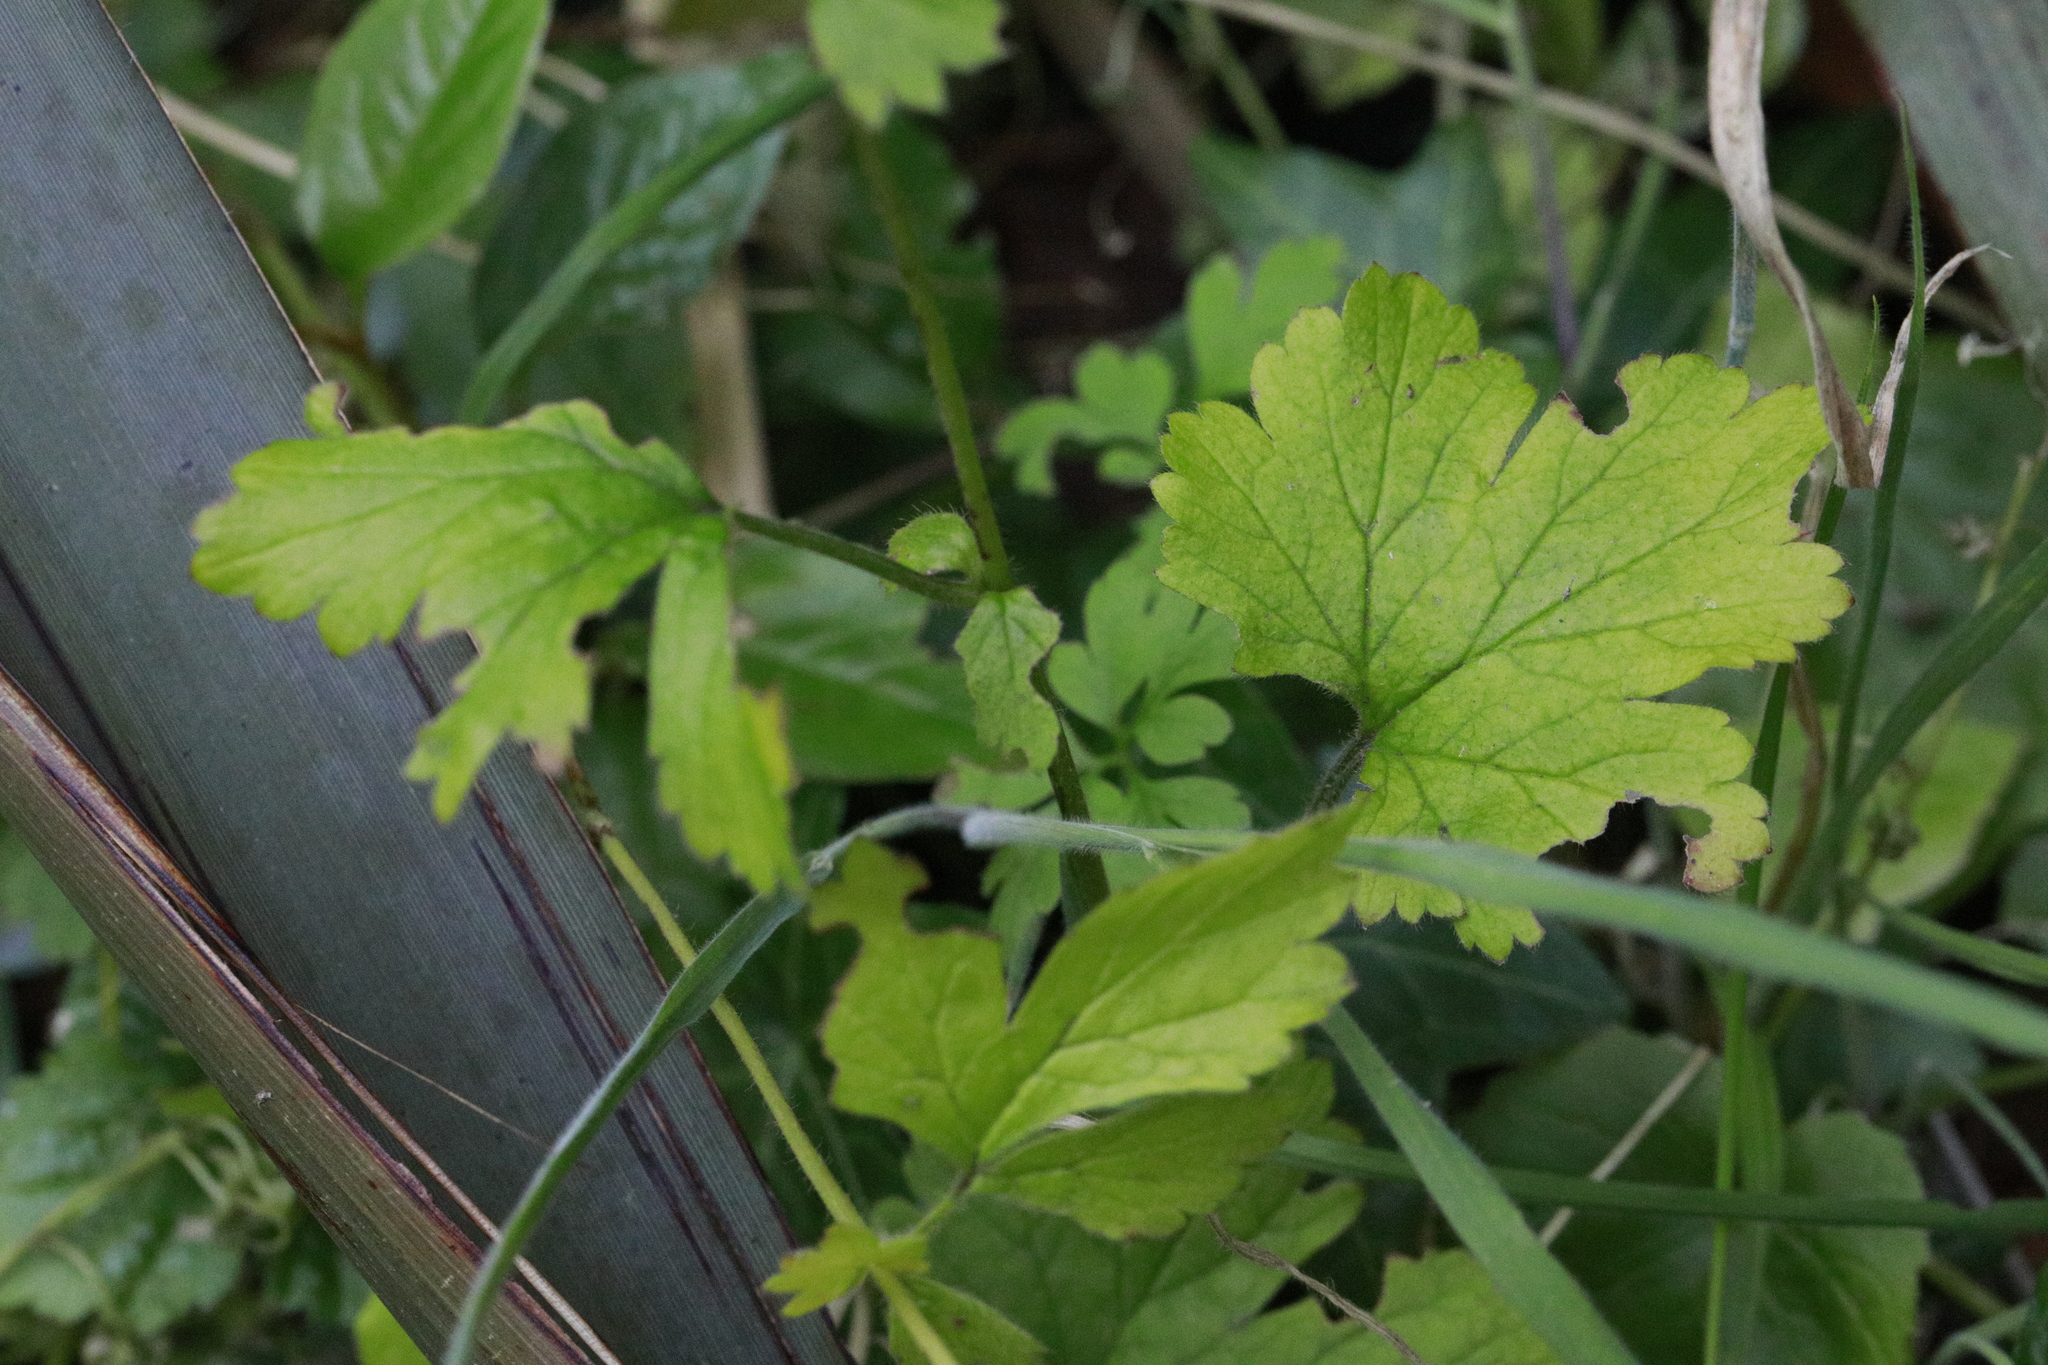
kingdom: Plantae
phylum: Tracheophyta
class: Magnoliopsida
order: Rosales
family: Rosaceae
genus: Geum
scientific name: Geum urbanum
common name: Wood avens
